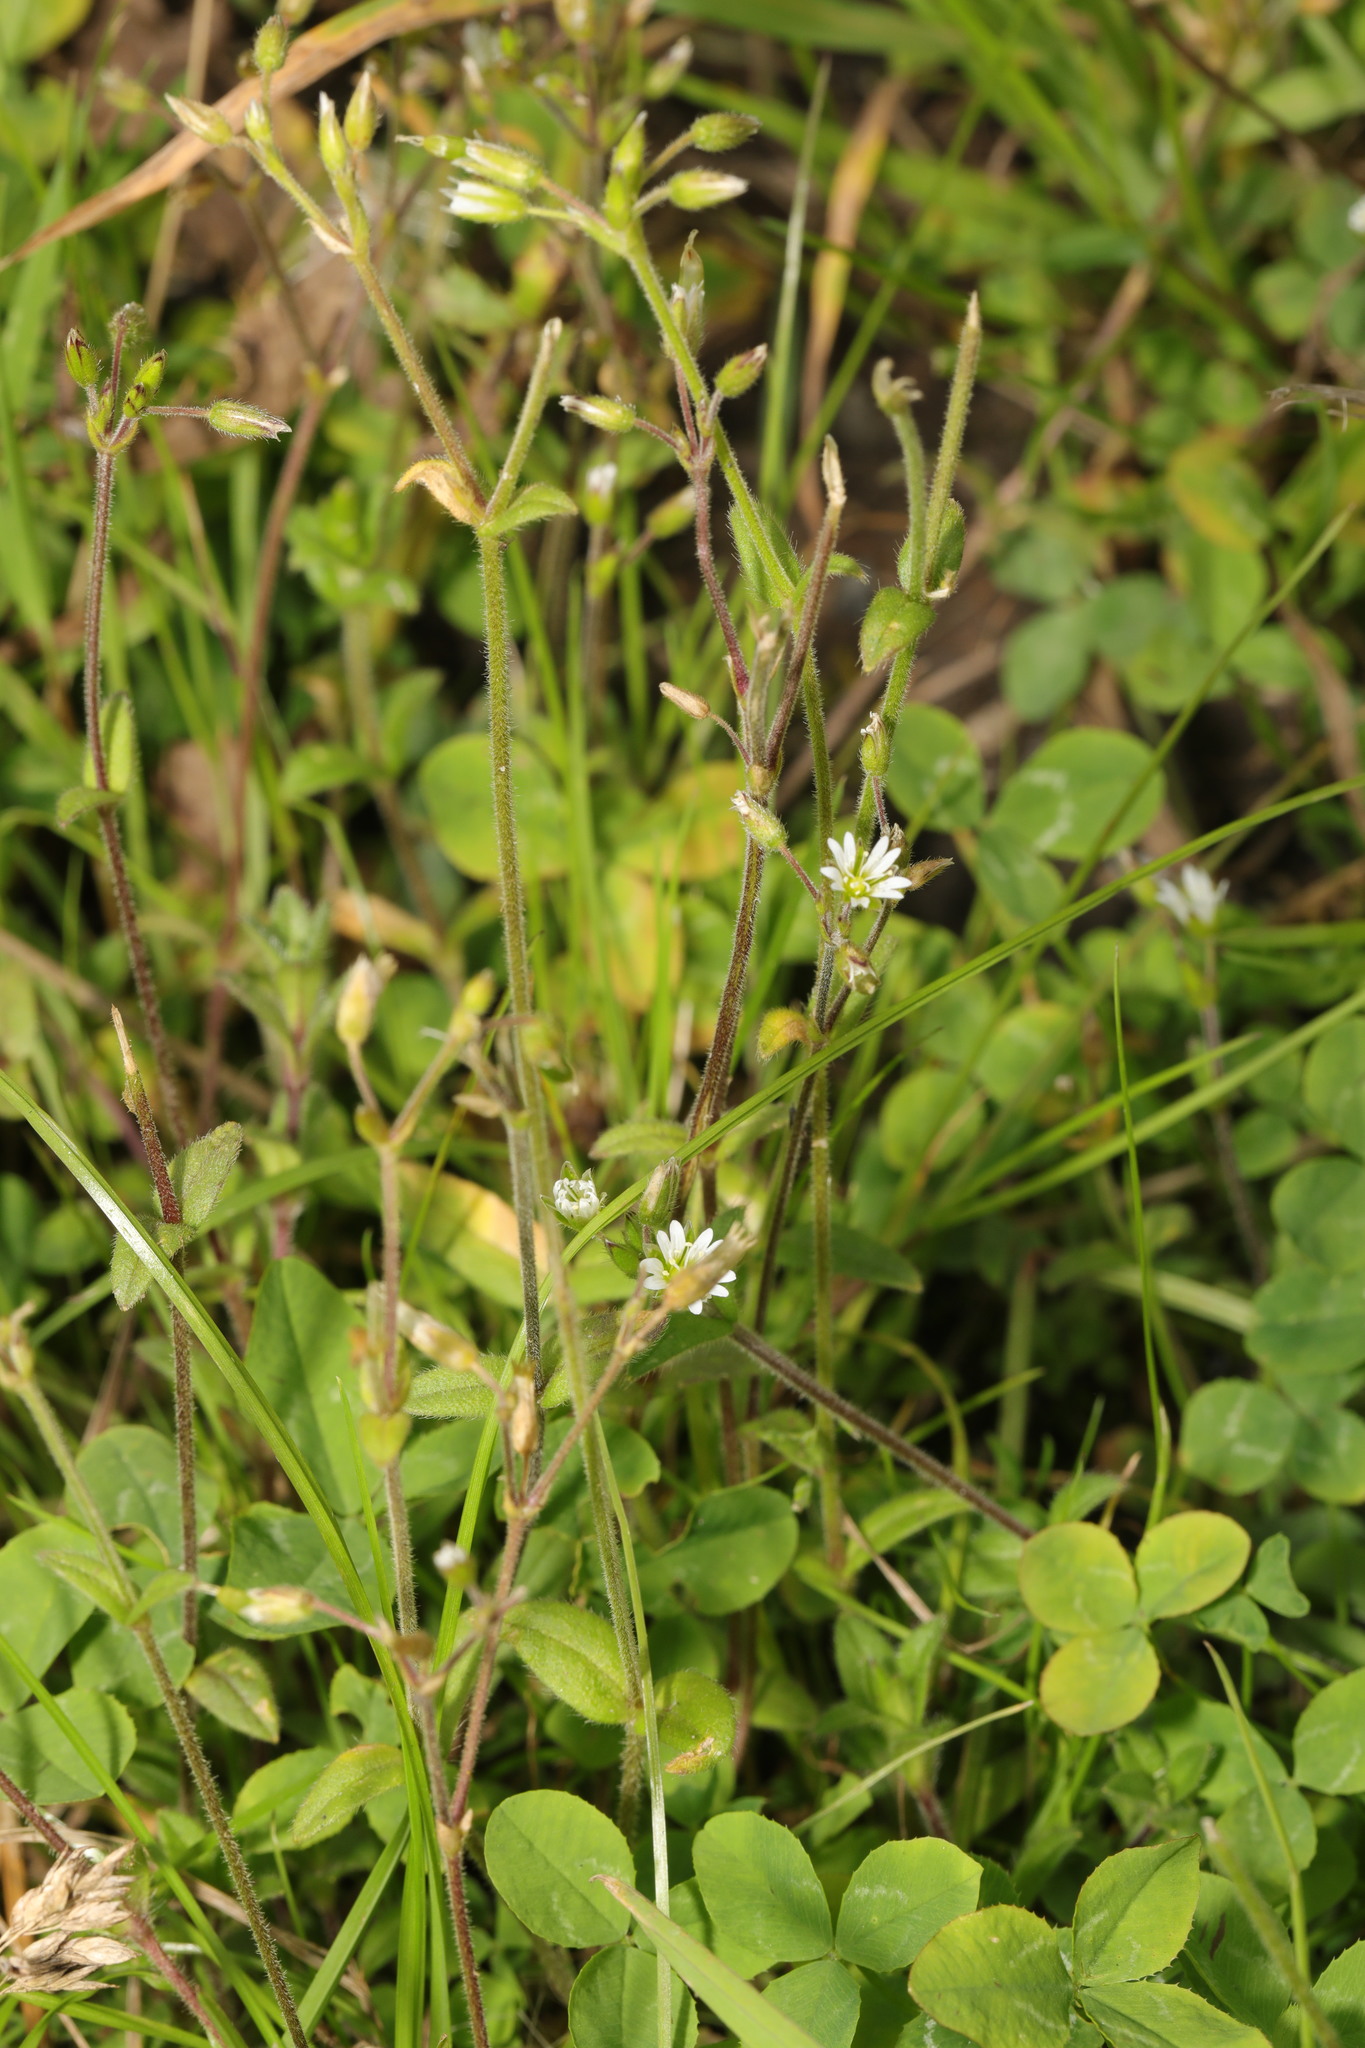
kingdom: Plantae
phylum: Tracheophyta
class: Magnoliopsida
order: Caryophyllales
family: Caryophyllaceae
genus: Cerastium
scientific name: Cerastium fontanum
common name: Common mouse-ear
